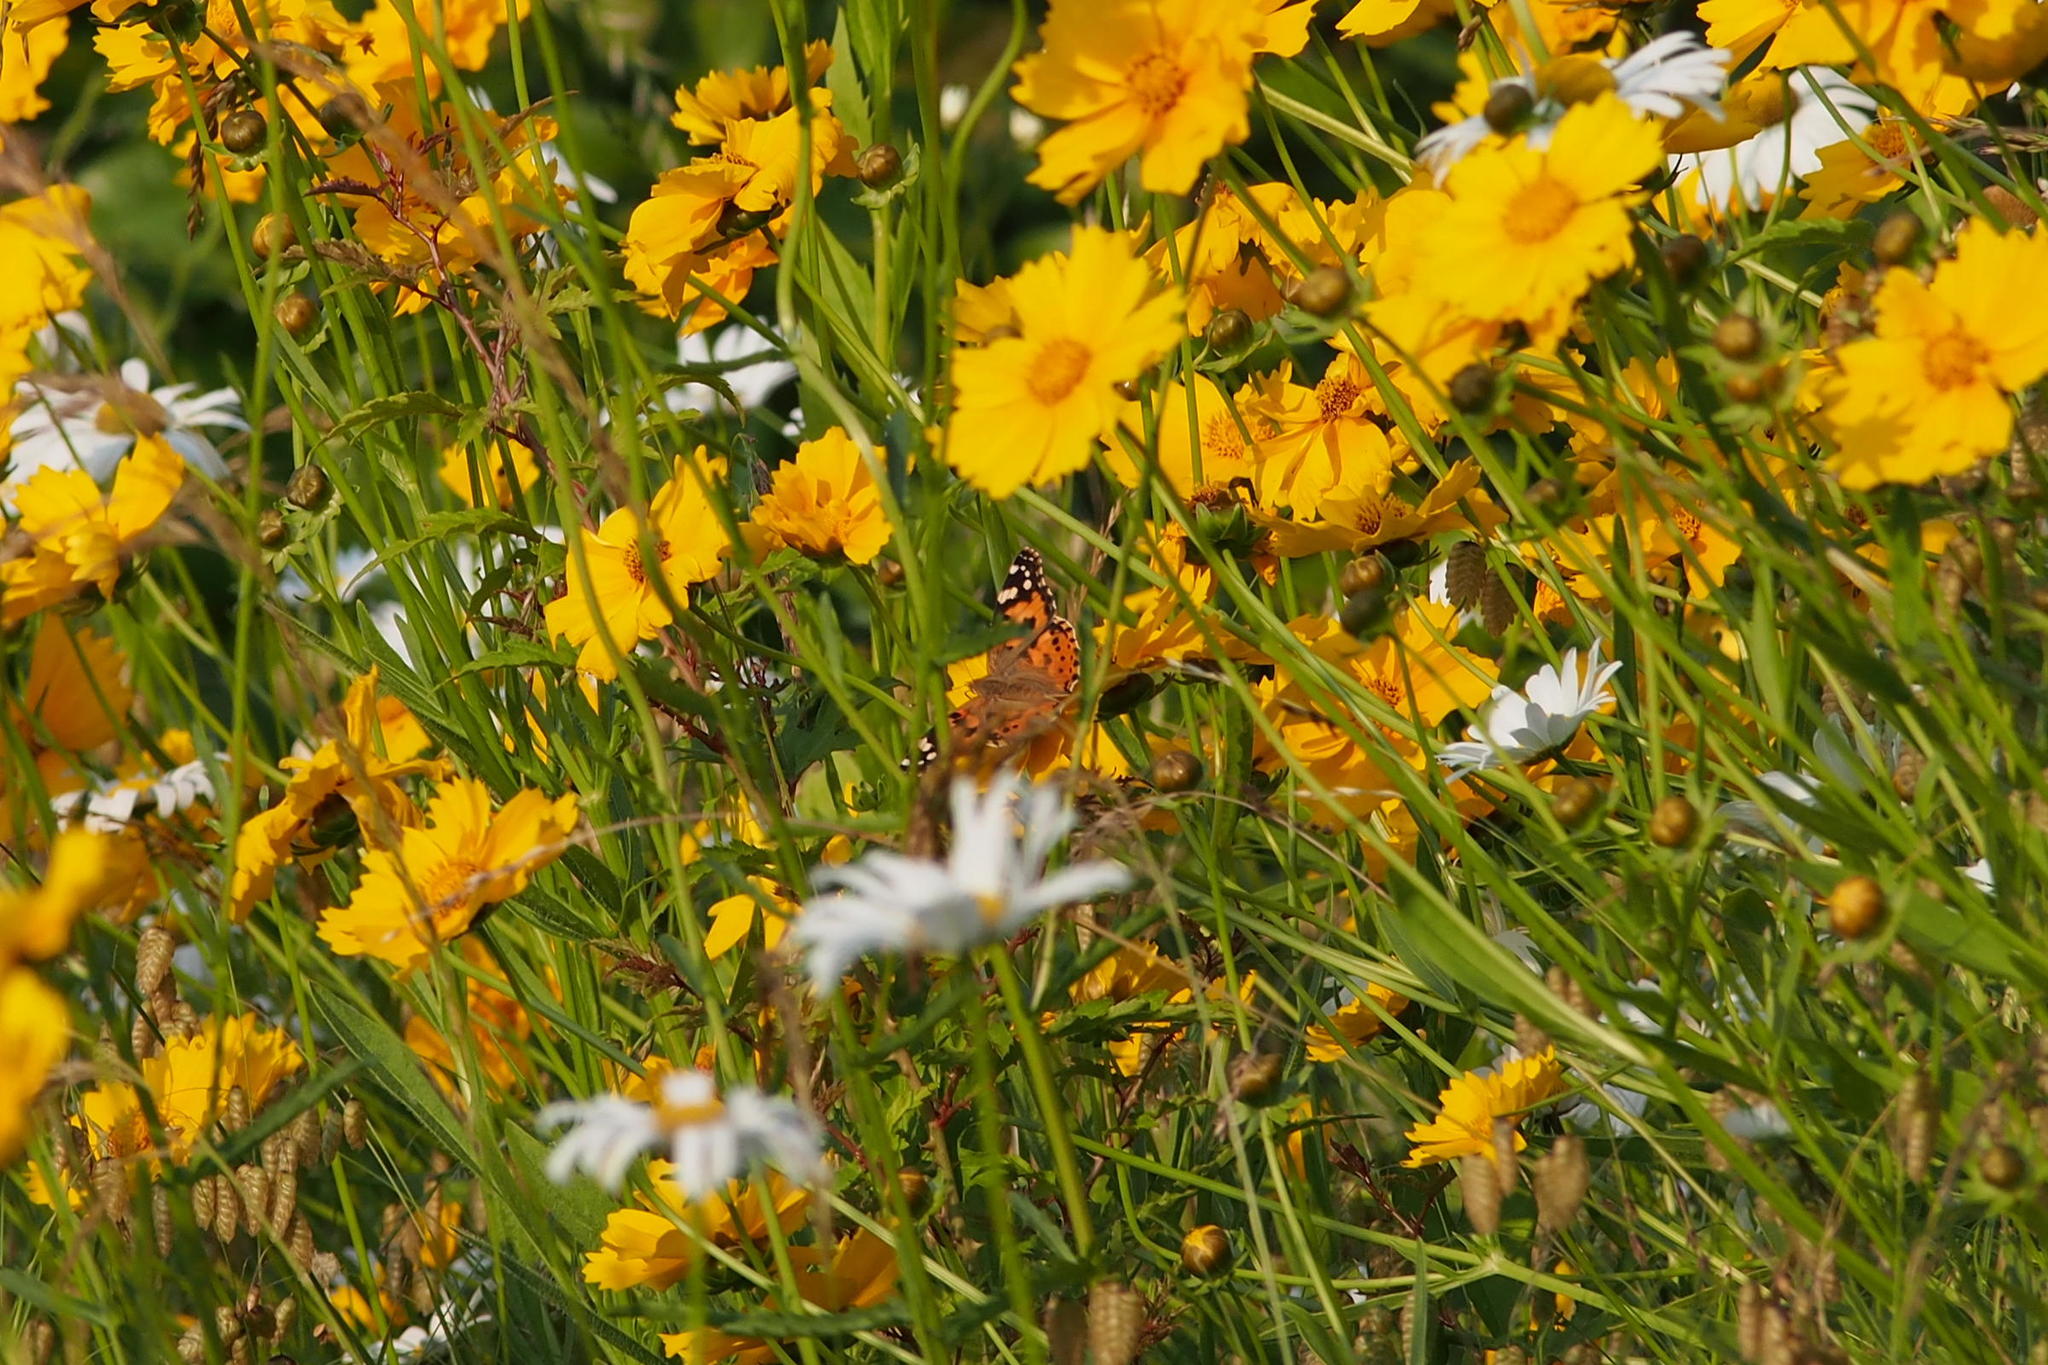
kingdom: Animalia
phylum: Arthropoda
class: Insecta
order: Lepidoptera
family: Nymphalidae
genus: Vanessa
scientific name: Vanessa cardui
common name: Painted lady
